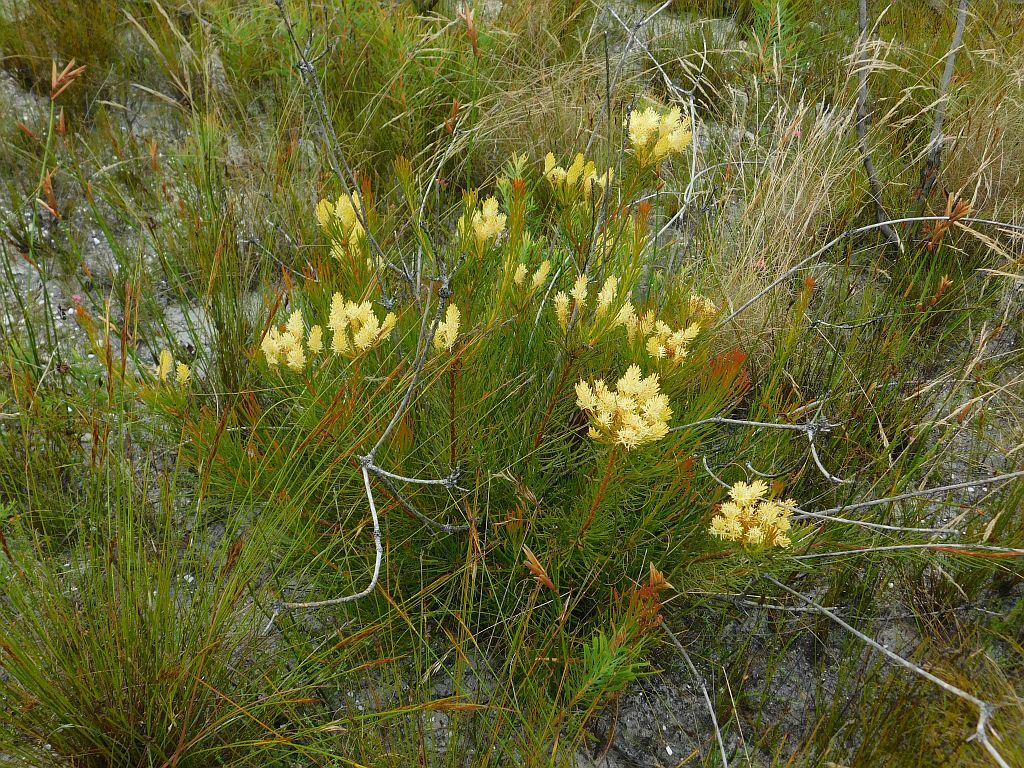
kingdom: Plantae
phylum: Tracheophyta
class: Magnoliopsida
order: Proteales
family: Proteaceae
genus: Aulax
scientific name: Aulax pallasia
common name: Needle-leaf featherbush
